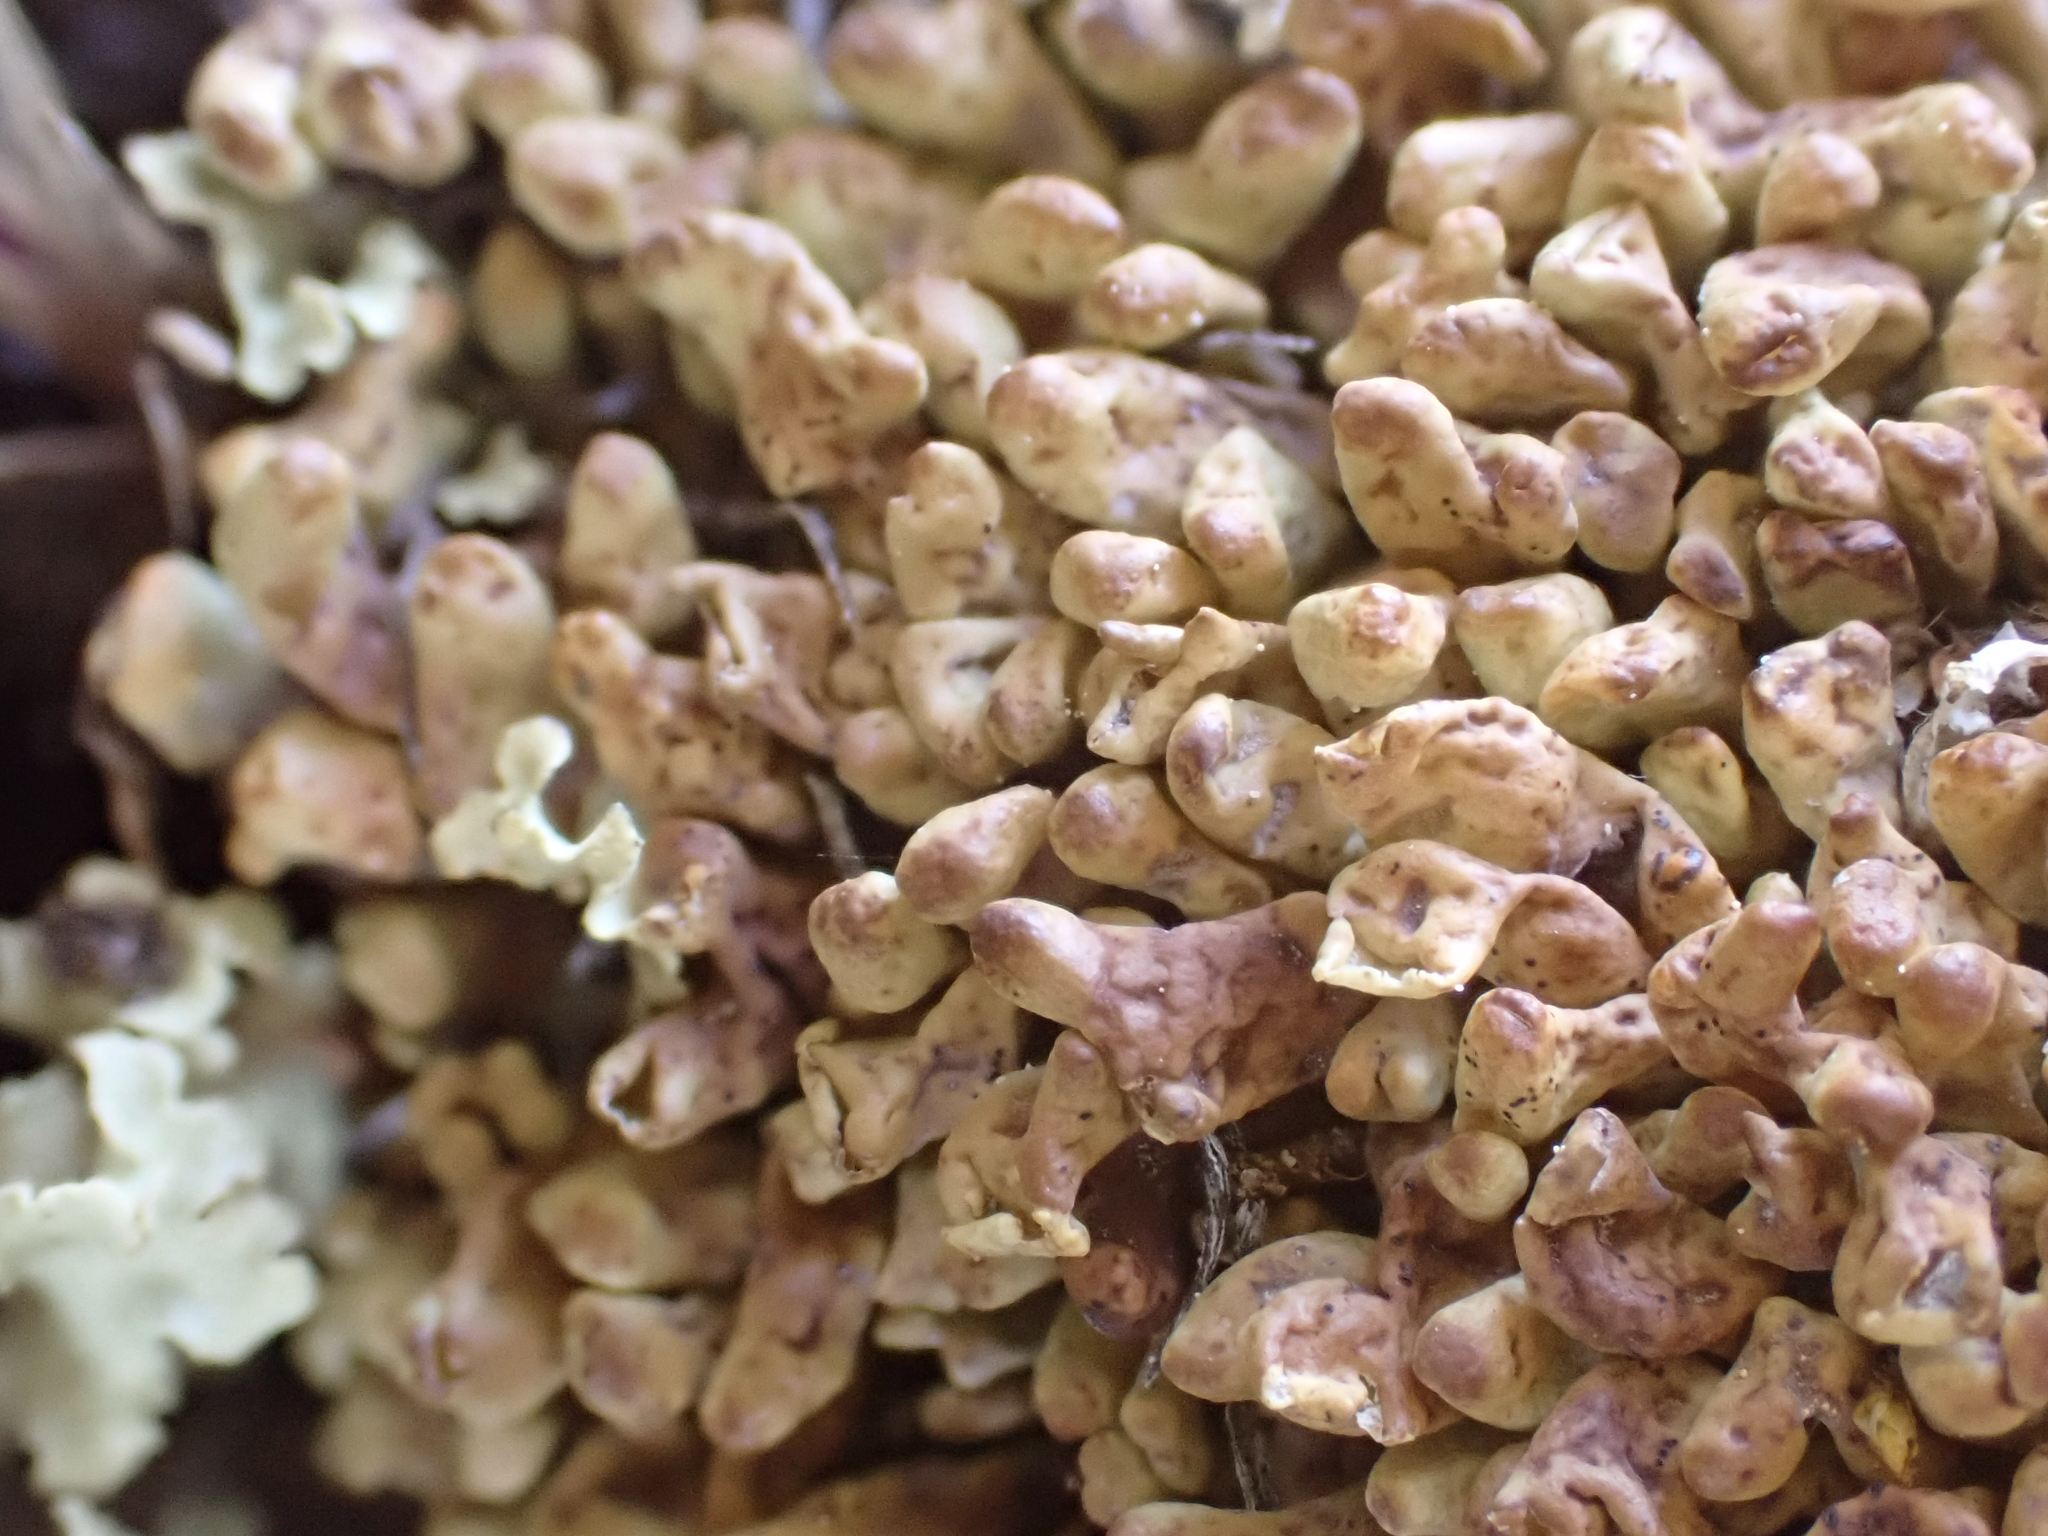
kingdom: Fungi
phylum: Ascomycota
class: Lecanoromycetes
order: Lecanorales
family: Parmeliaceae
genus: Dactylina
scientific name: Dactylina arctica
